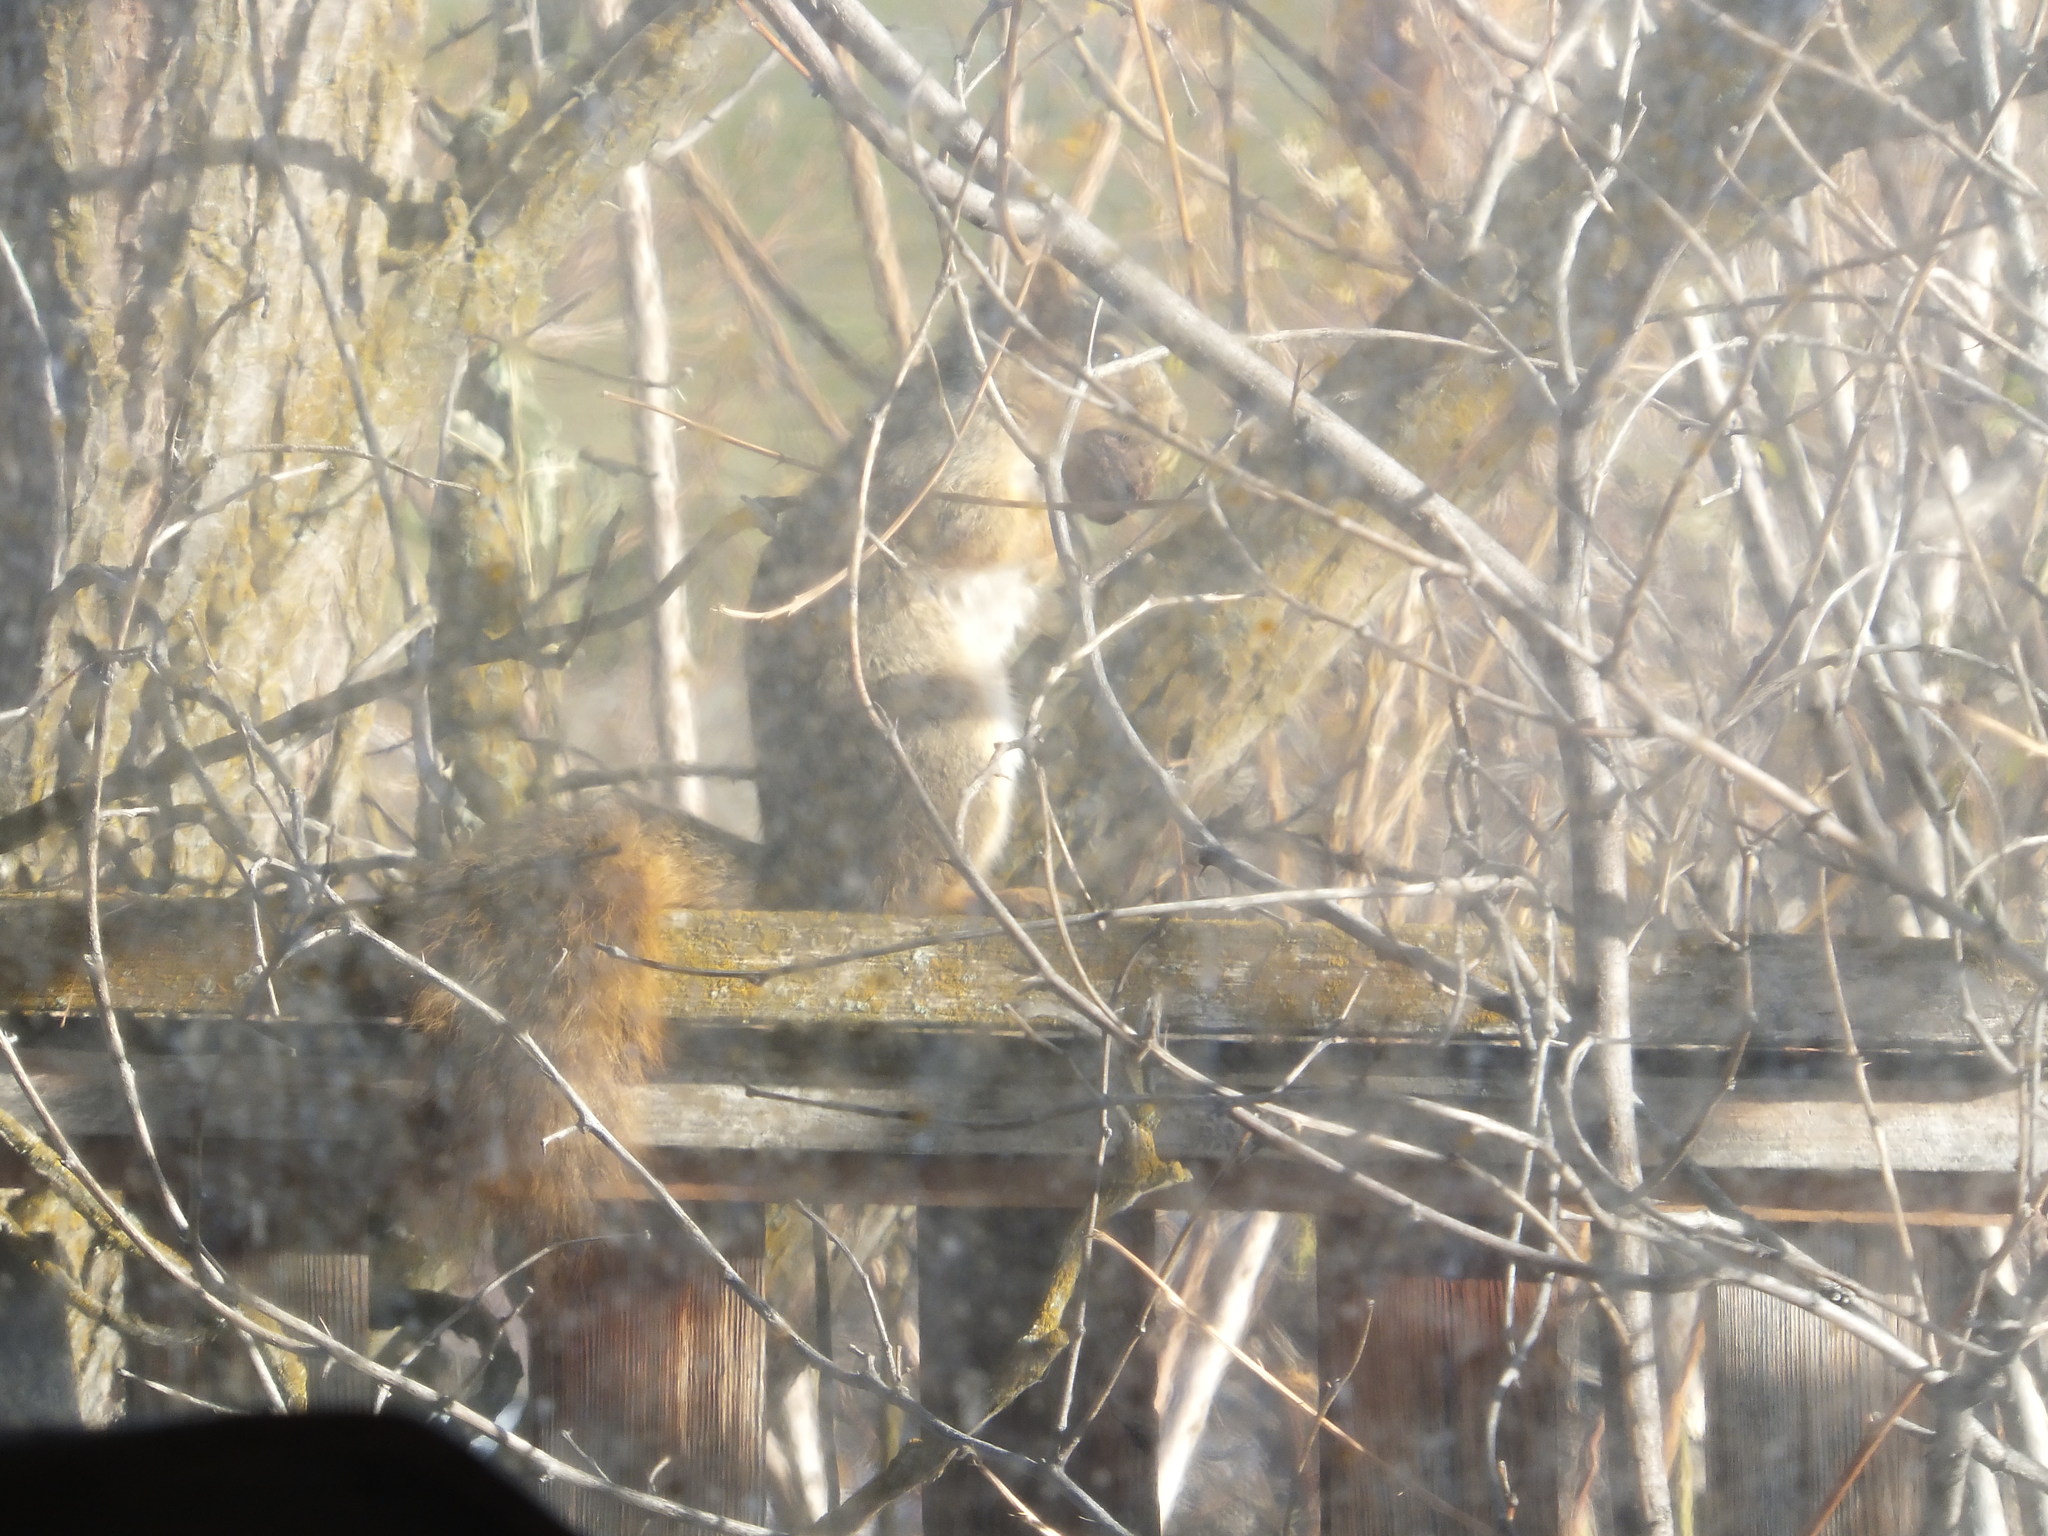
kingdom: Animalia
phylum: Chordata
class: Mammalia
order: Rodentia
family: Sciuridae
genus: Sciurus
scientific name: Sciurus niger
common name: Fox squirrel
